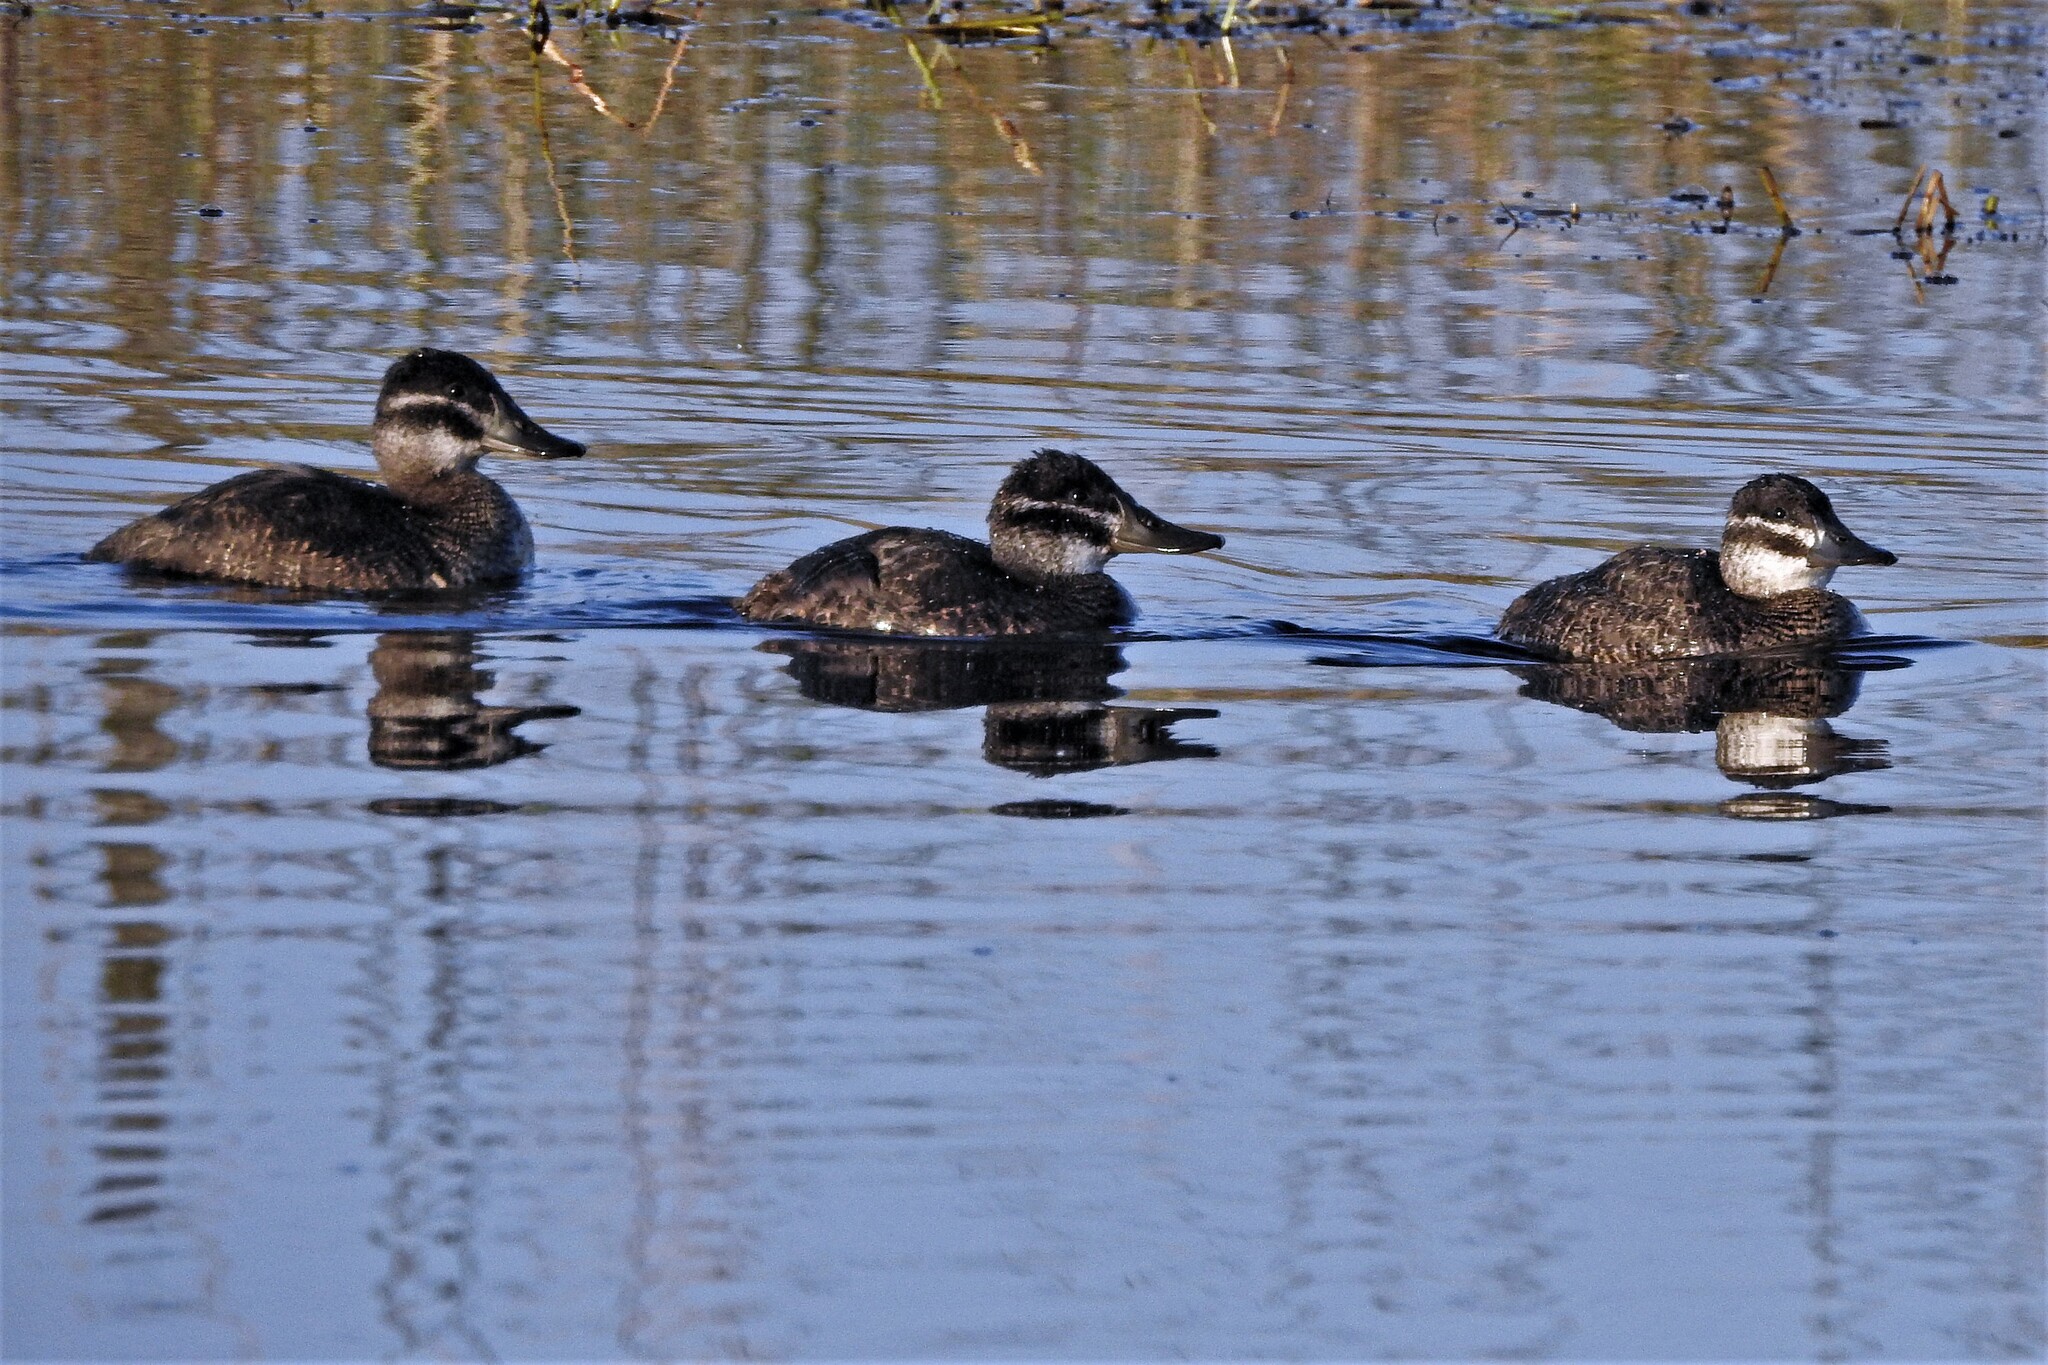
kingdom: Animalia
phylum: Chordata
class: Aves
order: Anseriformes
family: Anatidae
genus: Oxyura
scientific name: Oxyura vittata
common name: Lake duck
